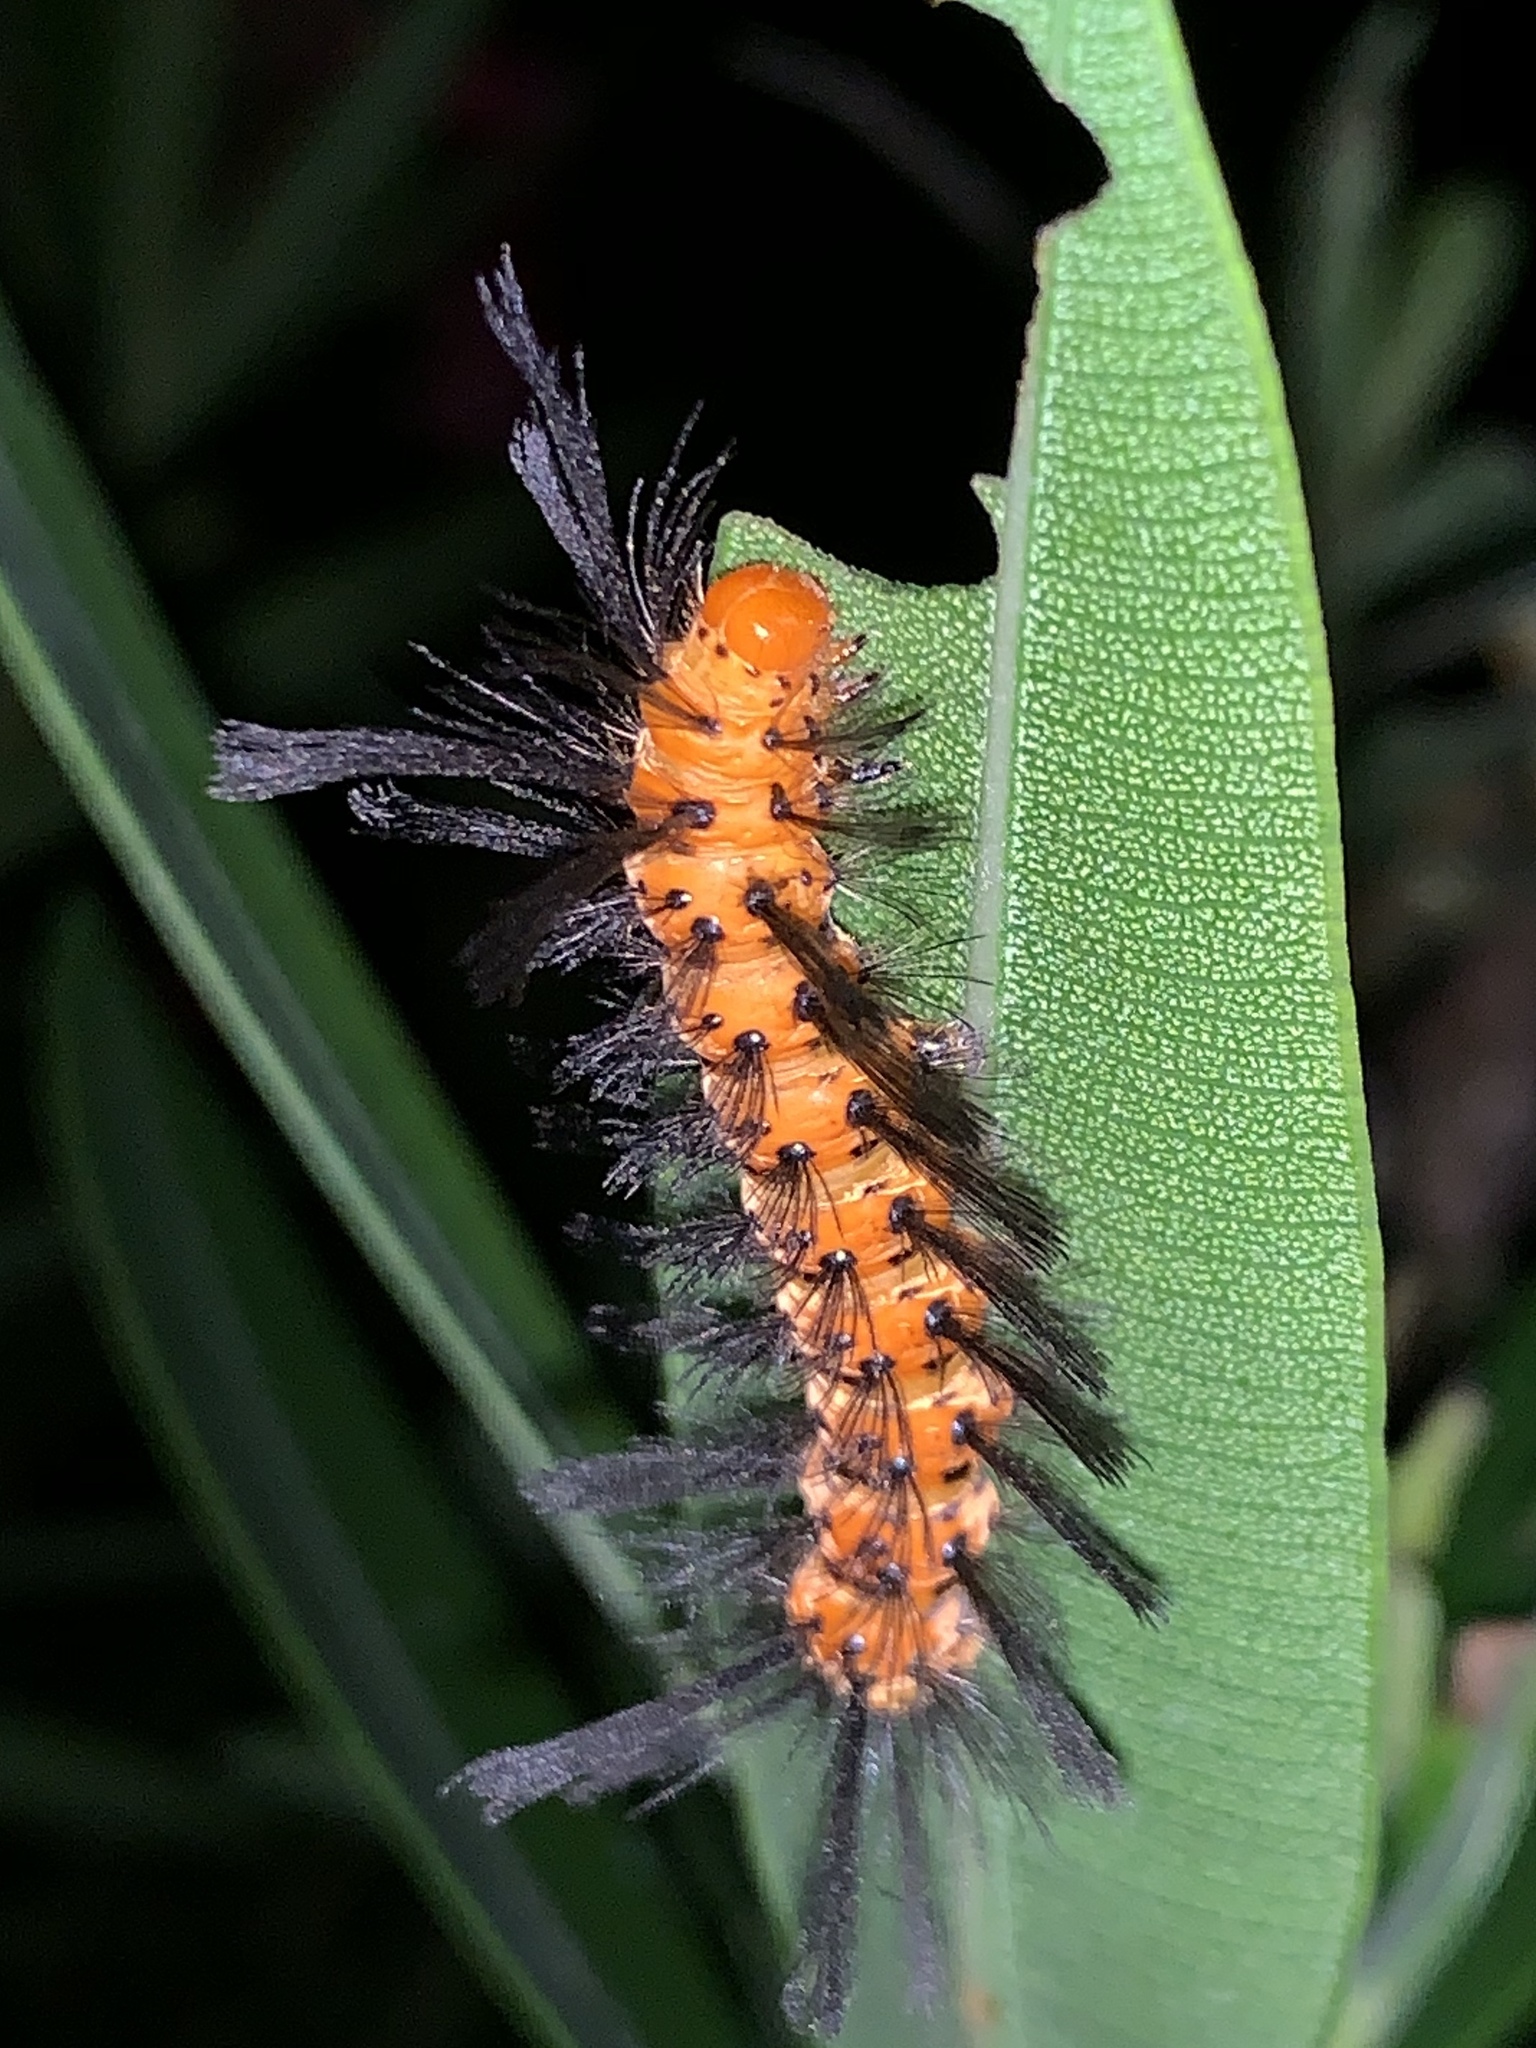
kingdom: Animalia
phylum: Arthropoda
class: Insecta
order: Lepidoptera
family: Erebidae
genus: Syntomeida
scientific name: Syntomeida epilais
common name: Polka-dot wasp moth
